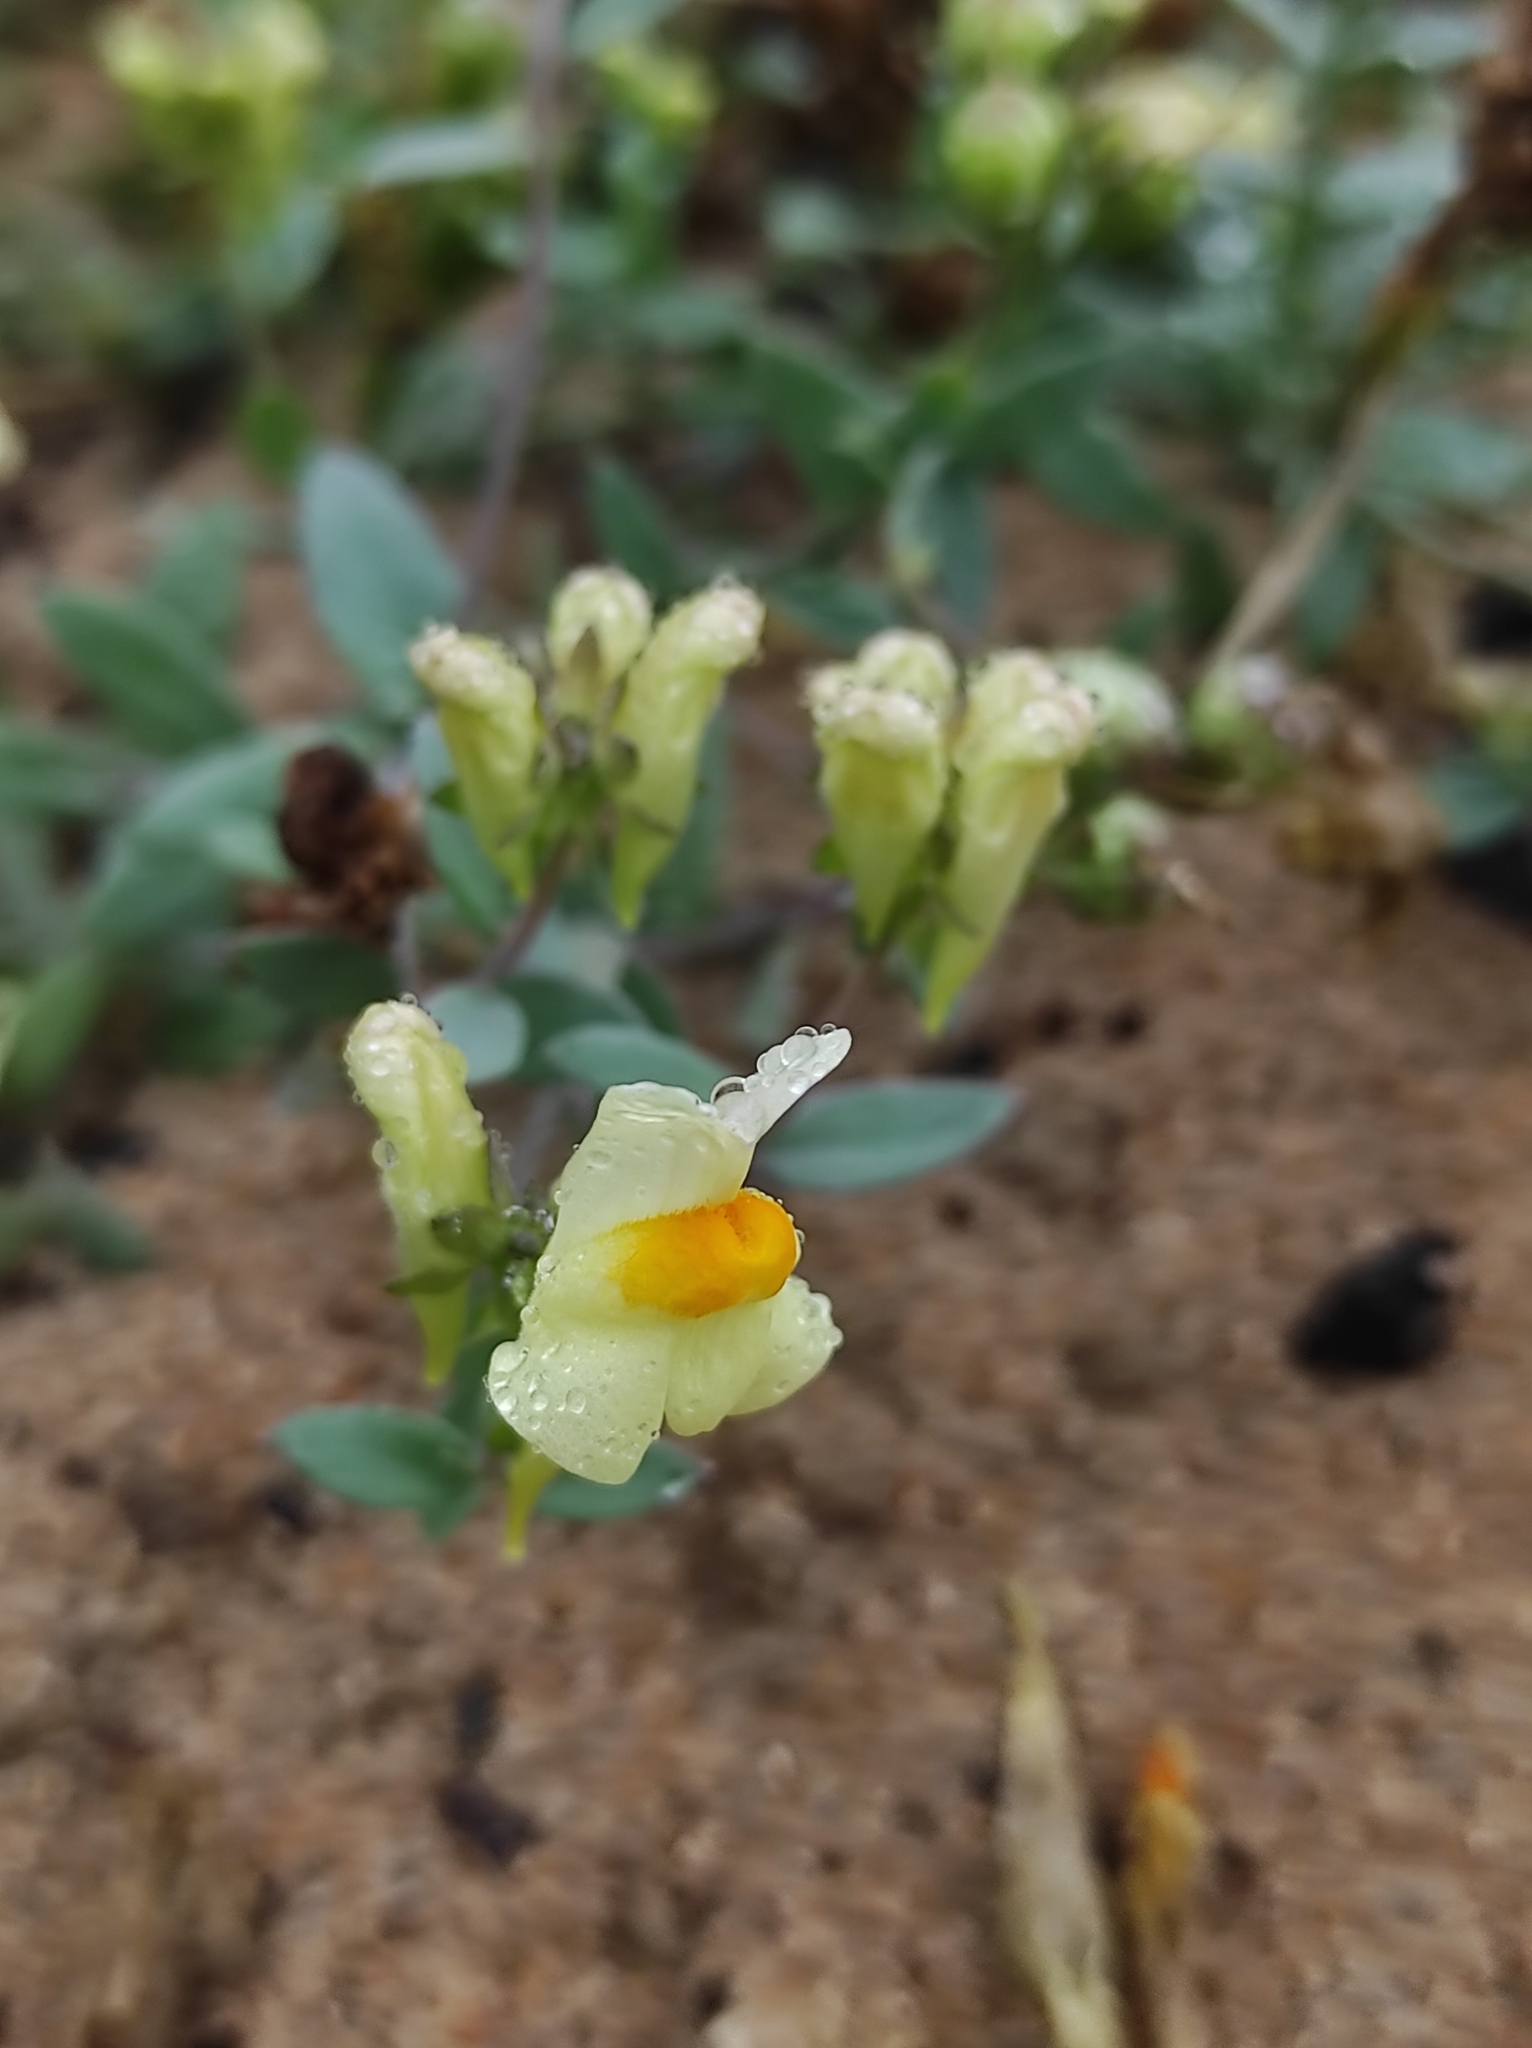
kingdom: Plantae
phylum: Tracheophyta
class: Magnoliopsida
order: Lamiales
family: Plantaginaceae
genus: Linaria
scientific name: Linaria japonica
